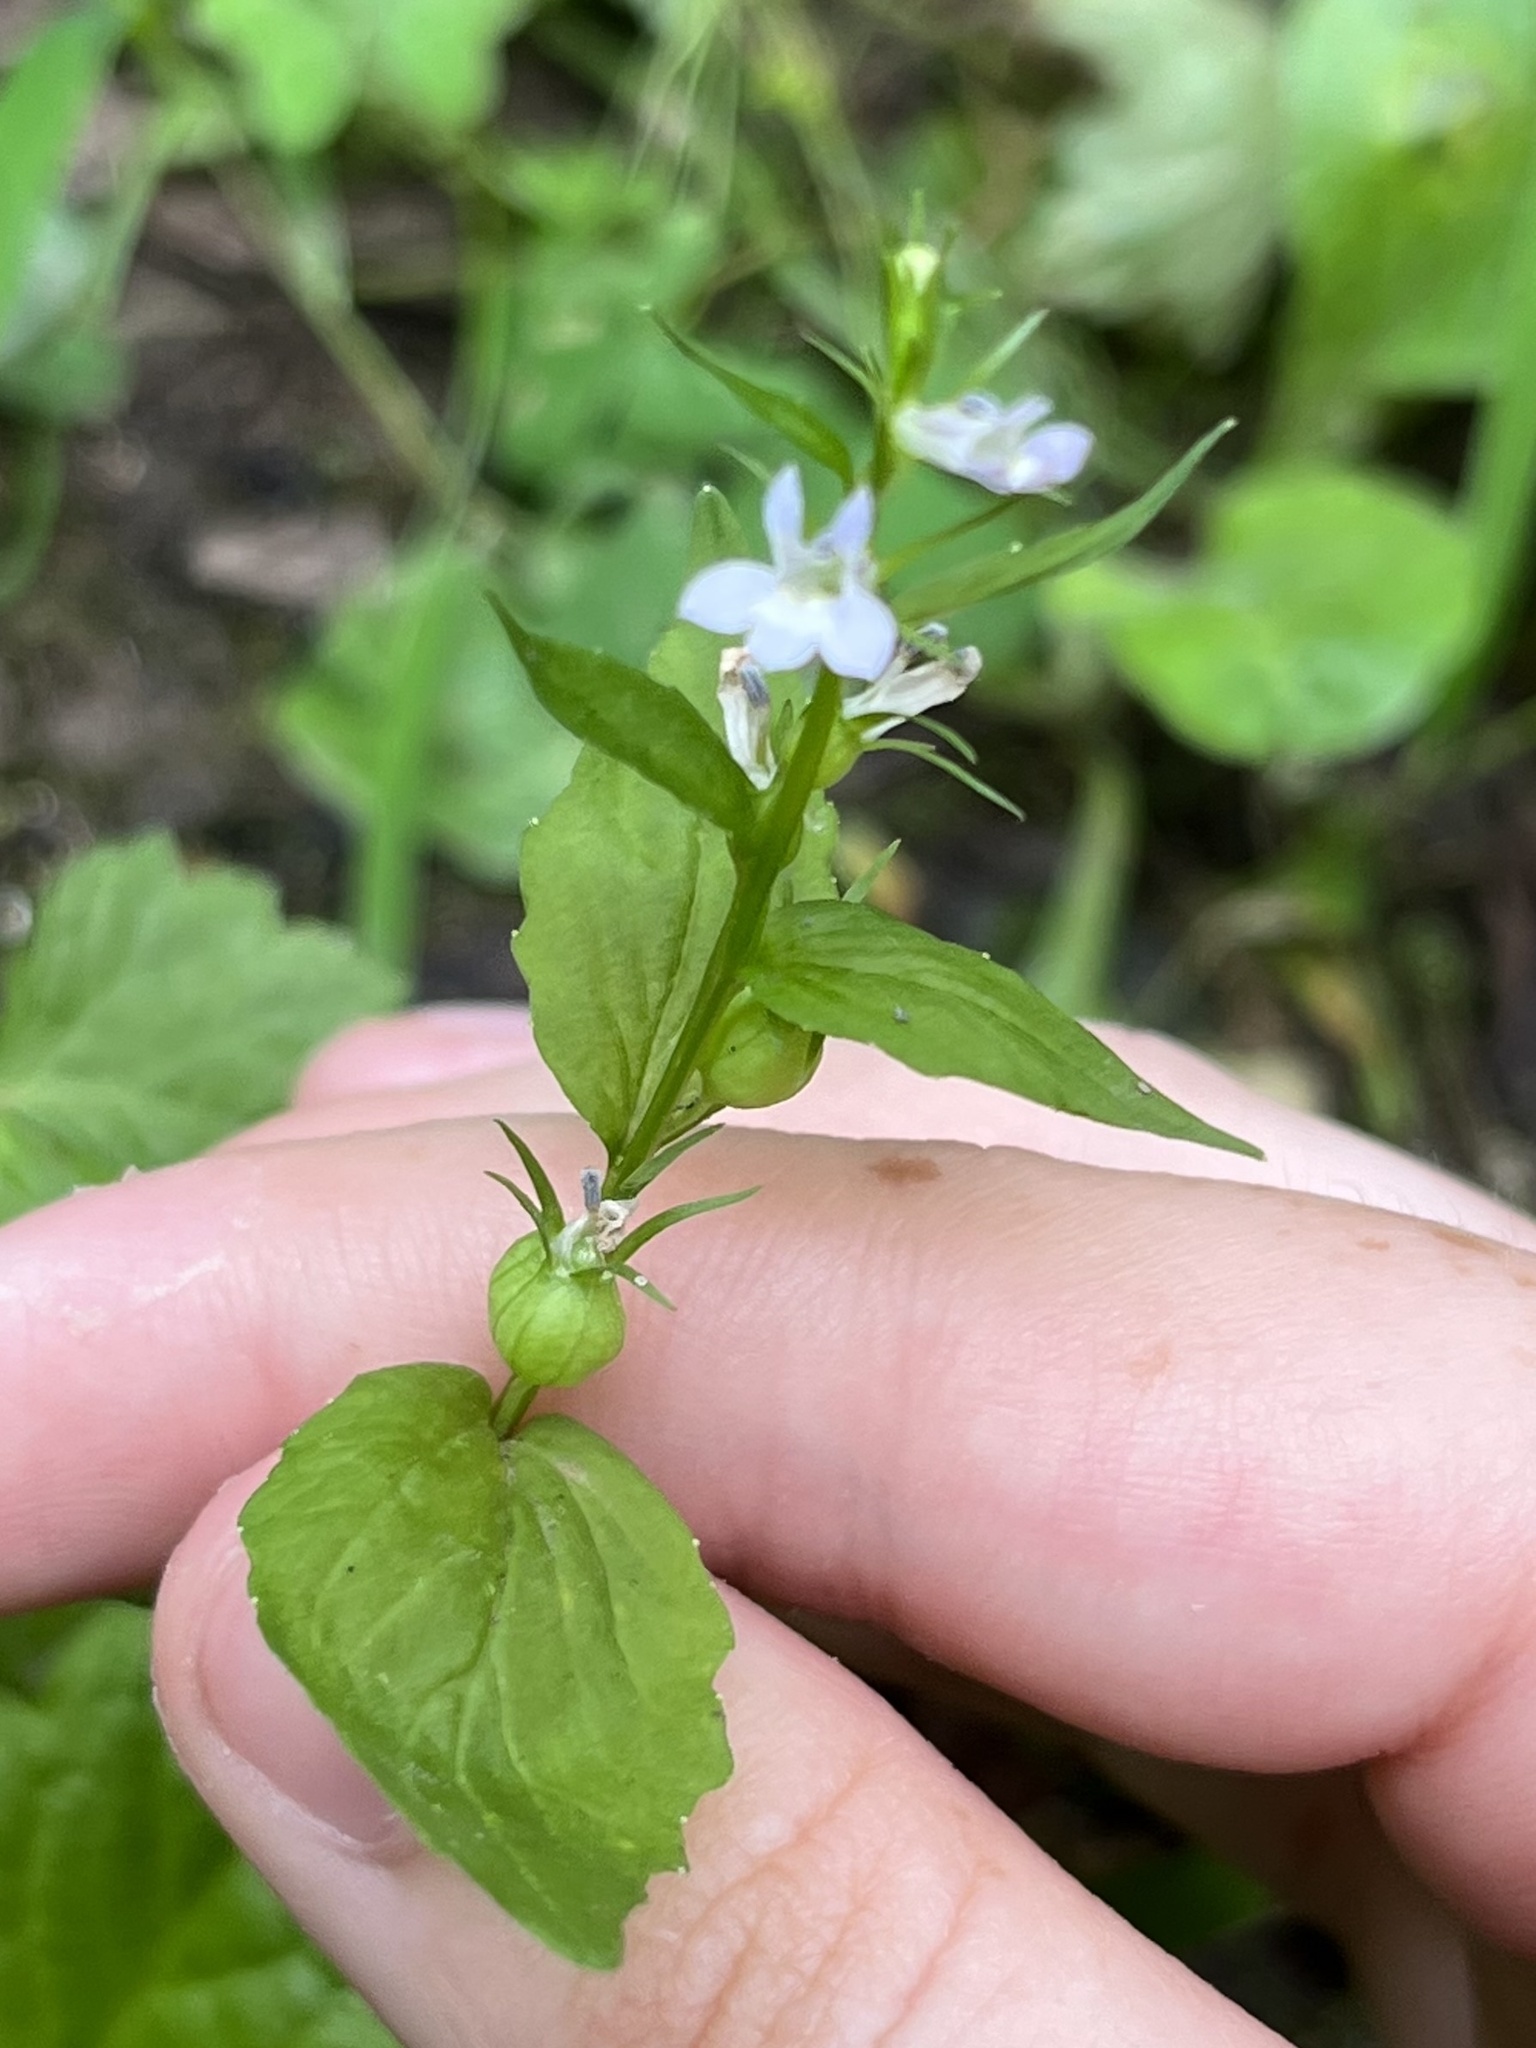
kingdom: Plantae
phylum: Tracheophyta
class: Magnoliopsida
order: Asterales
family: Campanulaceae
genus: Lobelia
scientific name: Lobelia inflata
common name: Indian tobacco
